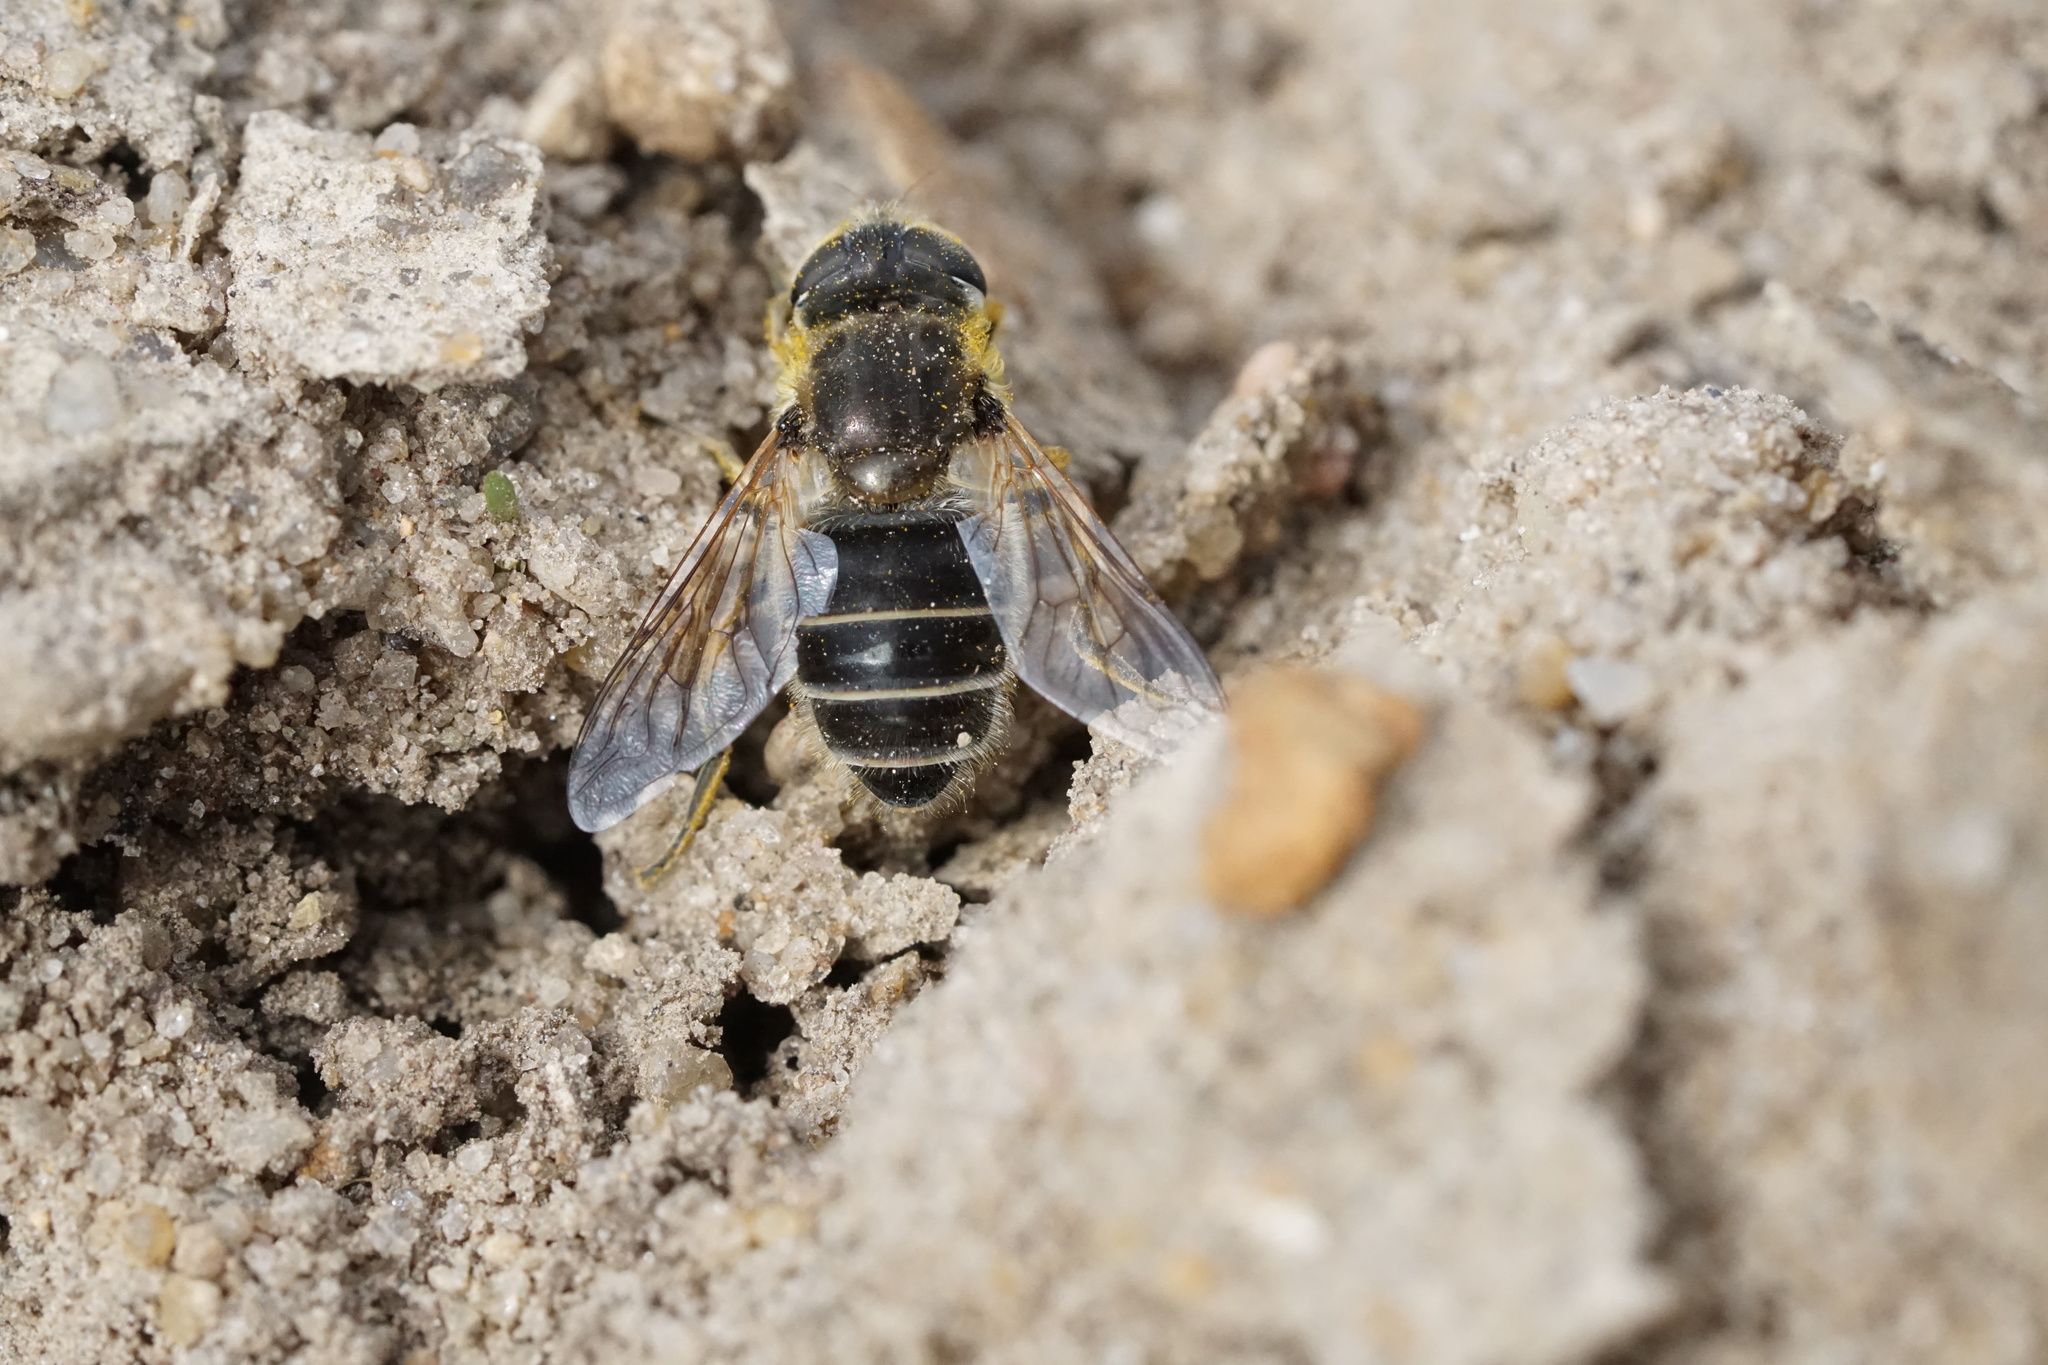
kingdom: Animalia
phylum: Arthropoda
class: Insecta
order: Diptera
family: Syrphidae
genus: Eristalis
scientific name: Eristalis arbustorum
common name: Hover fly
